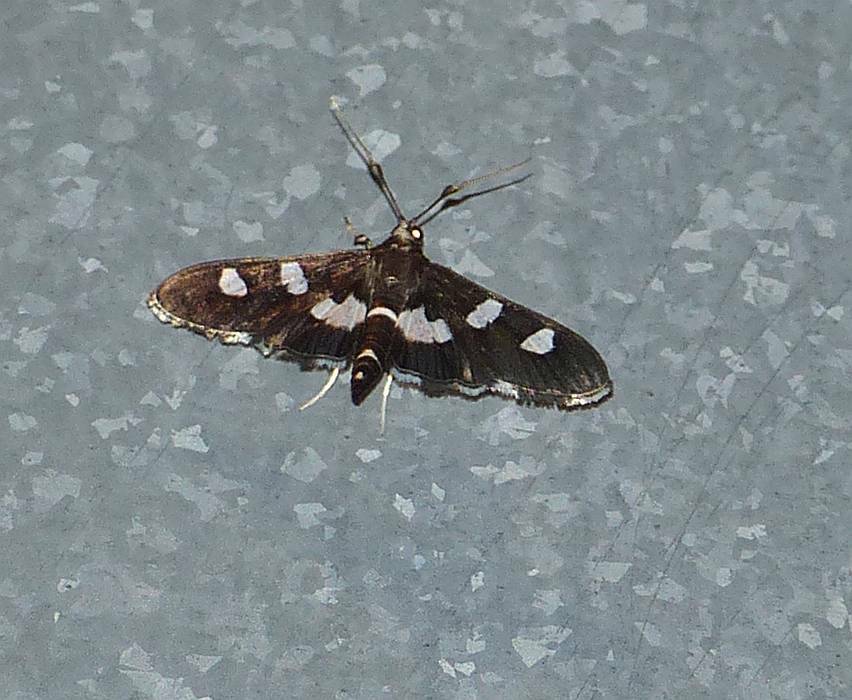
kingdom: Animalia
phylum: Arthropoda
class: Insecta
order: Lepidoptera
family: Crambidae
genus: Desmia
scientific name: Desmia
